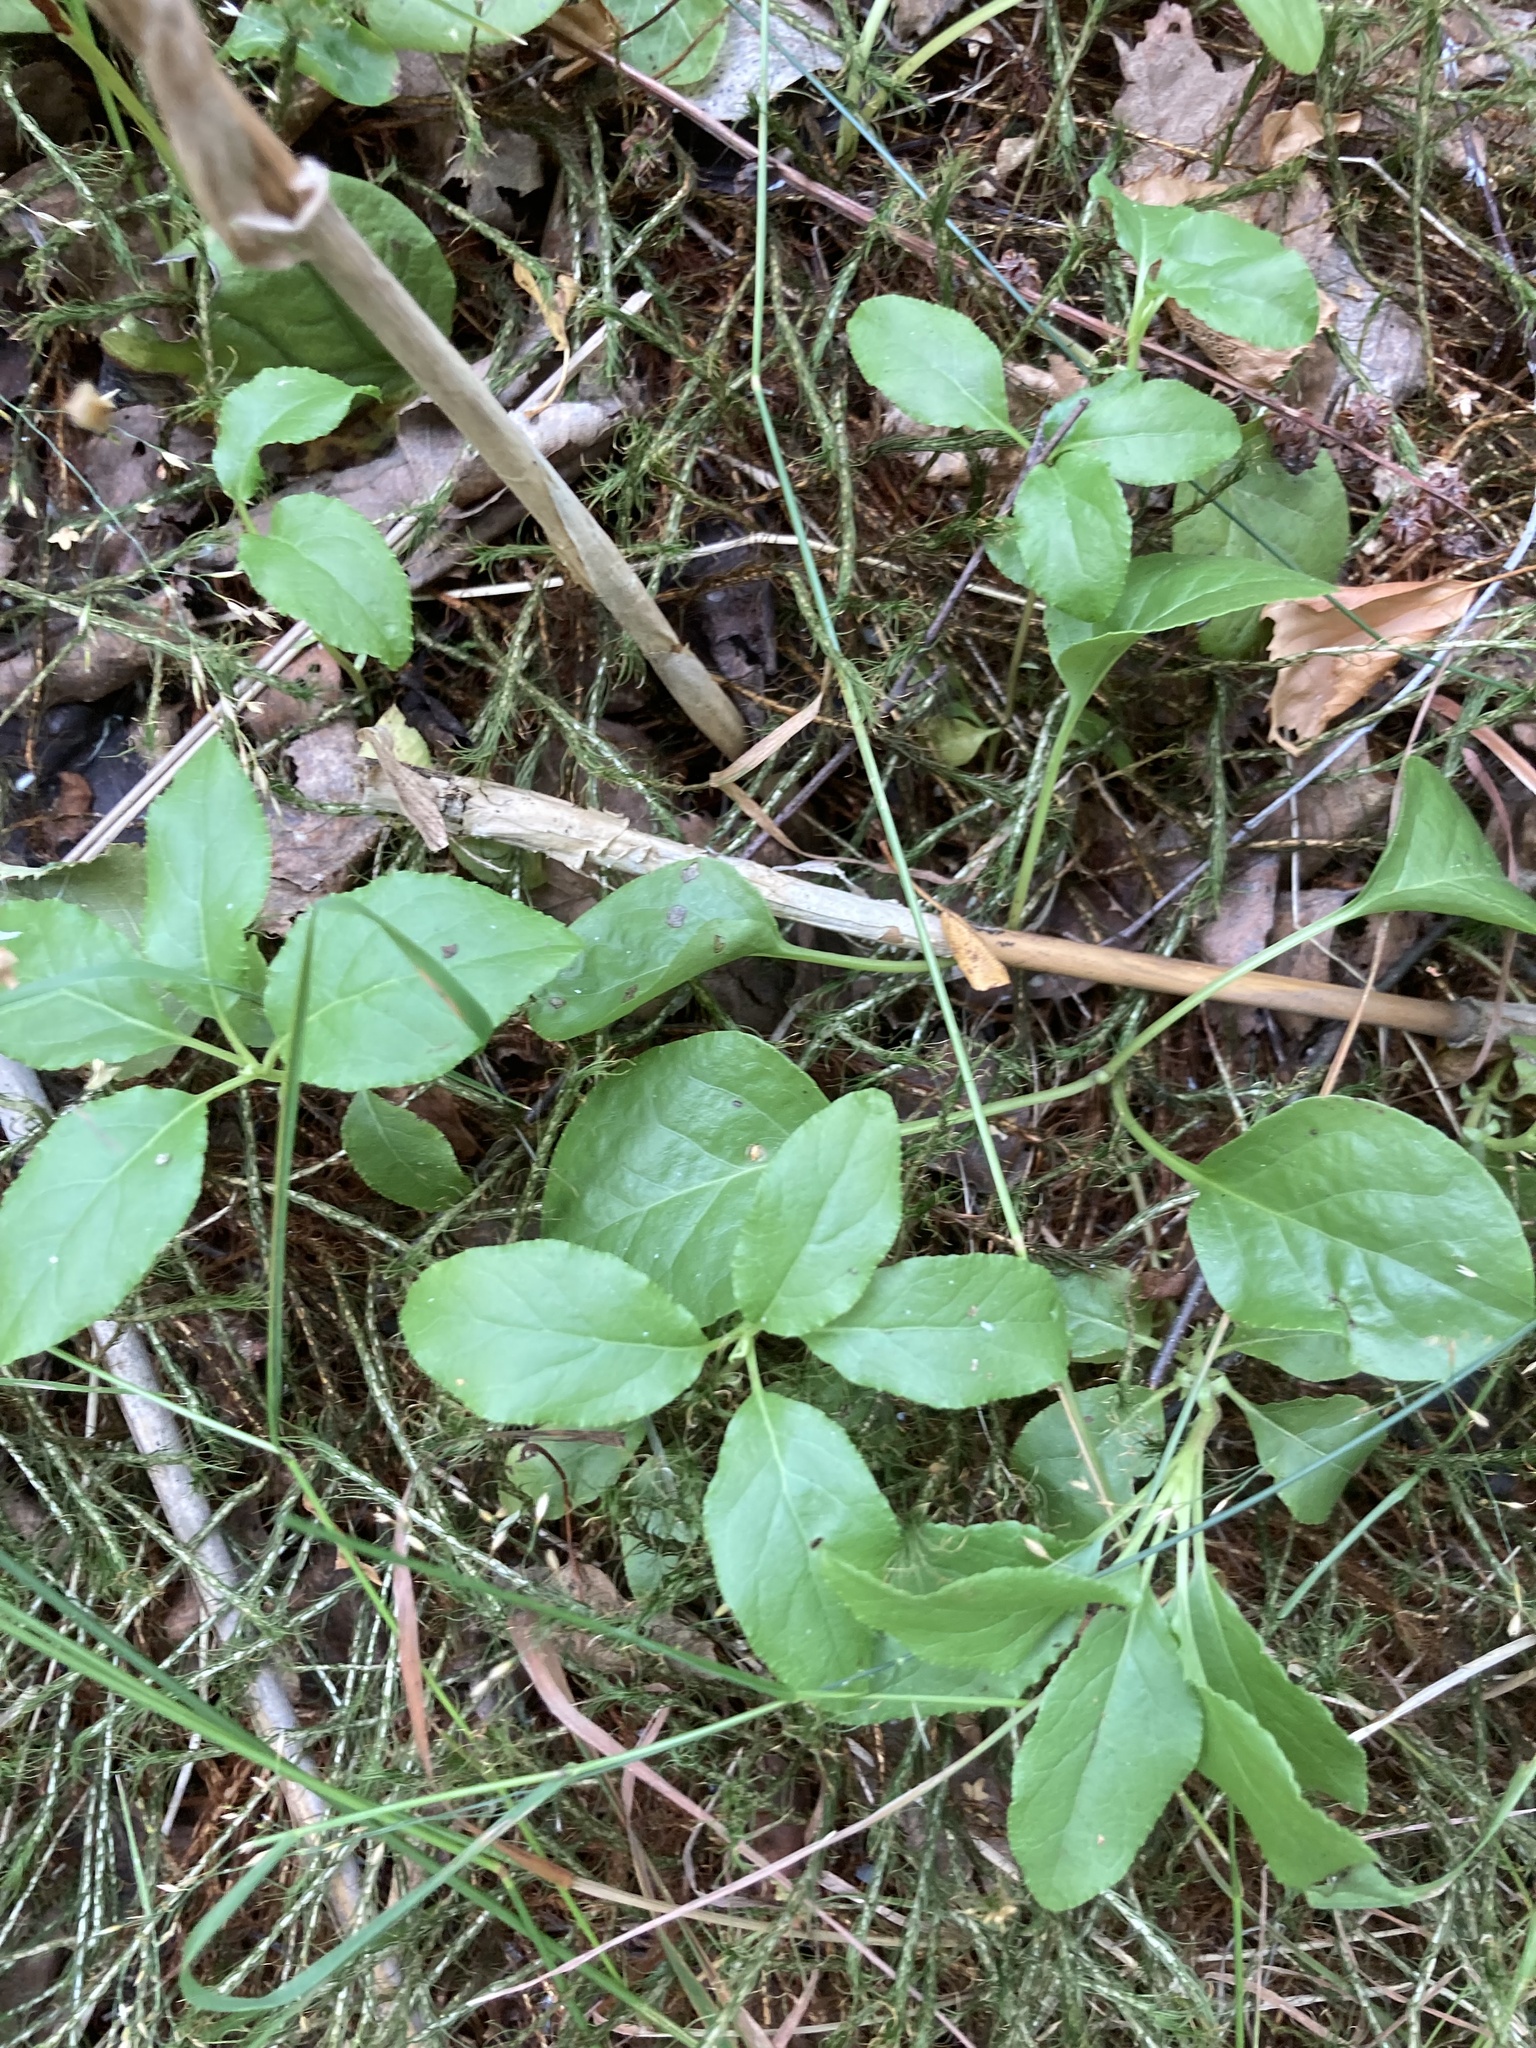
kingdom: Plantae
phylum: Tracheophyta
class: Magnoliopsida
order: Ericales
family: Ericaceae
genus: Orthilia
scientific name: Orthilia secunda
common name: One-sided orthilia
